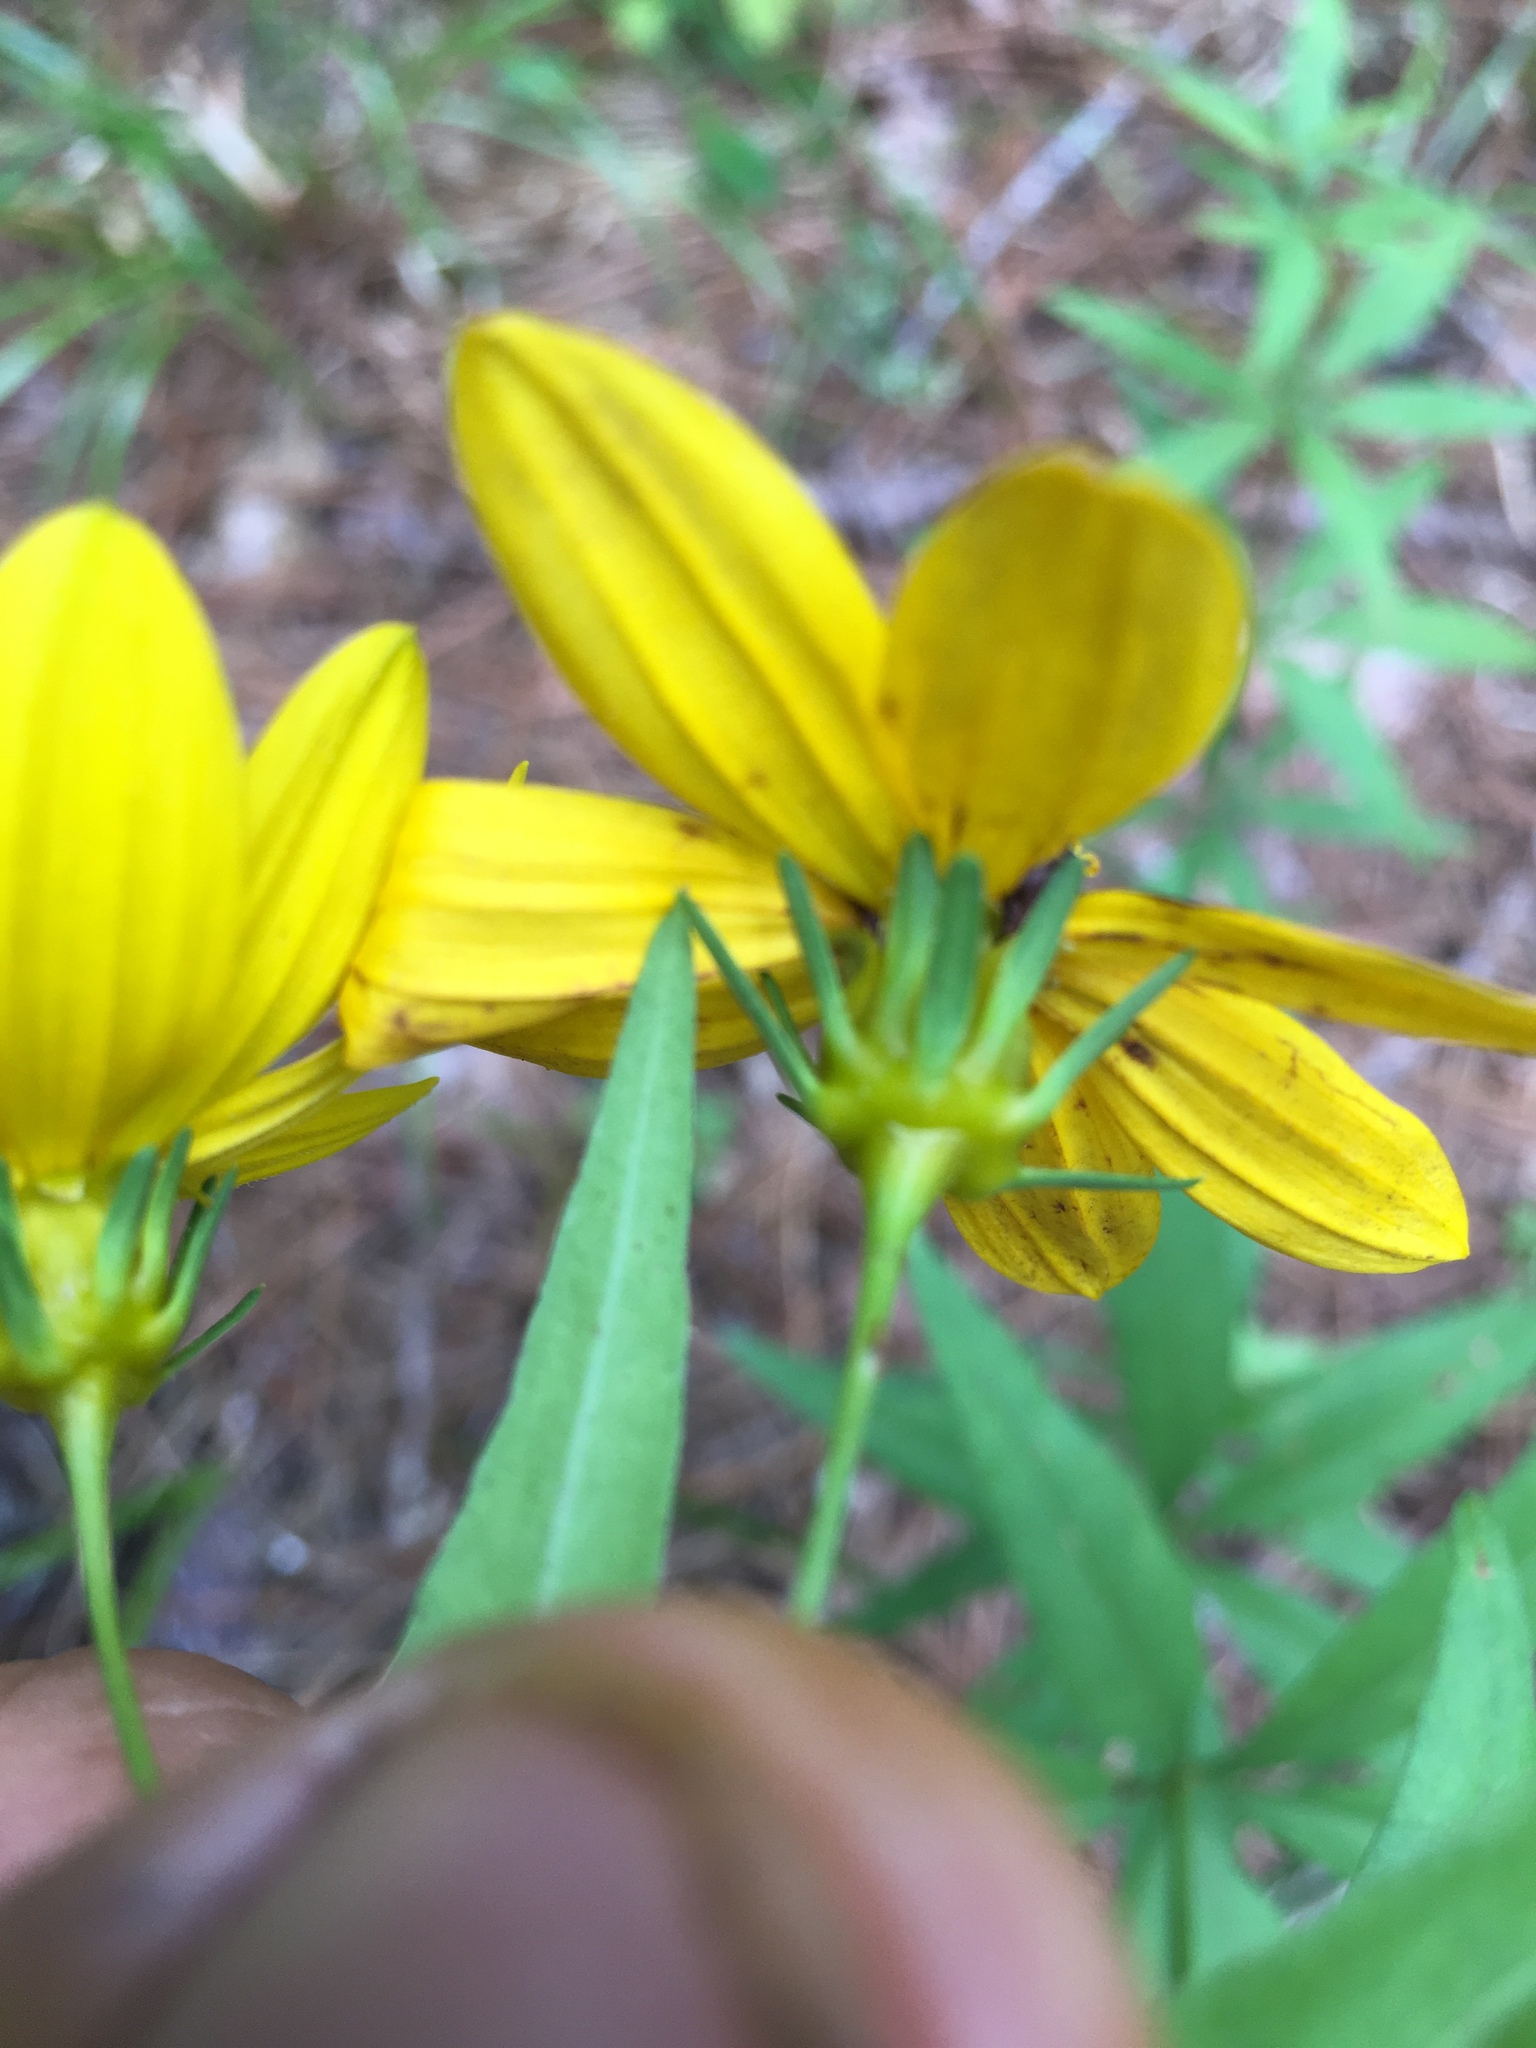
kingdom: Plantae
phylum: Tracheophyta
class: Magnoliopsida
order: Asterales
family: Asteraceae
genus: Coreopsis
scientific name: Coreopsis major
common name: Forest tickseed
